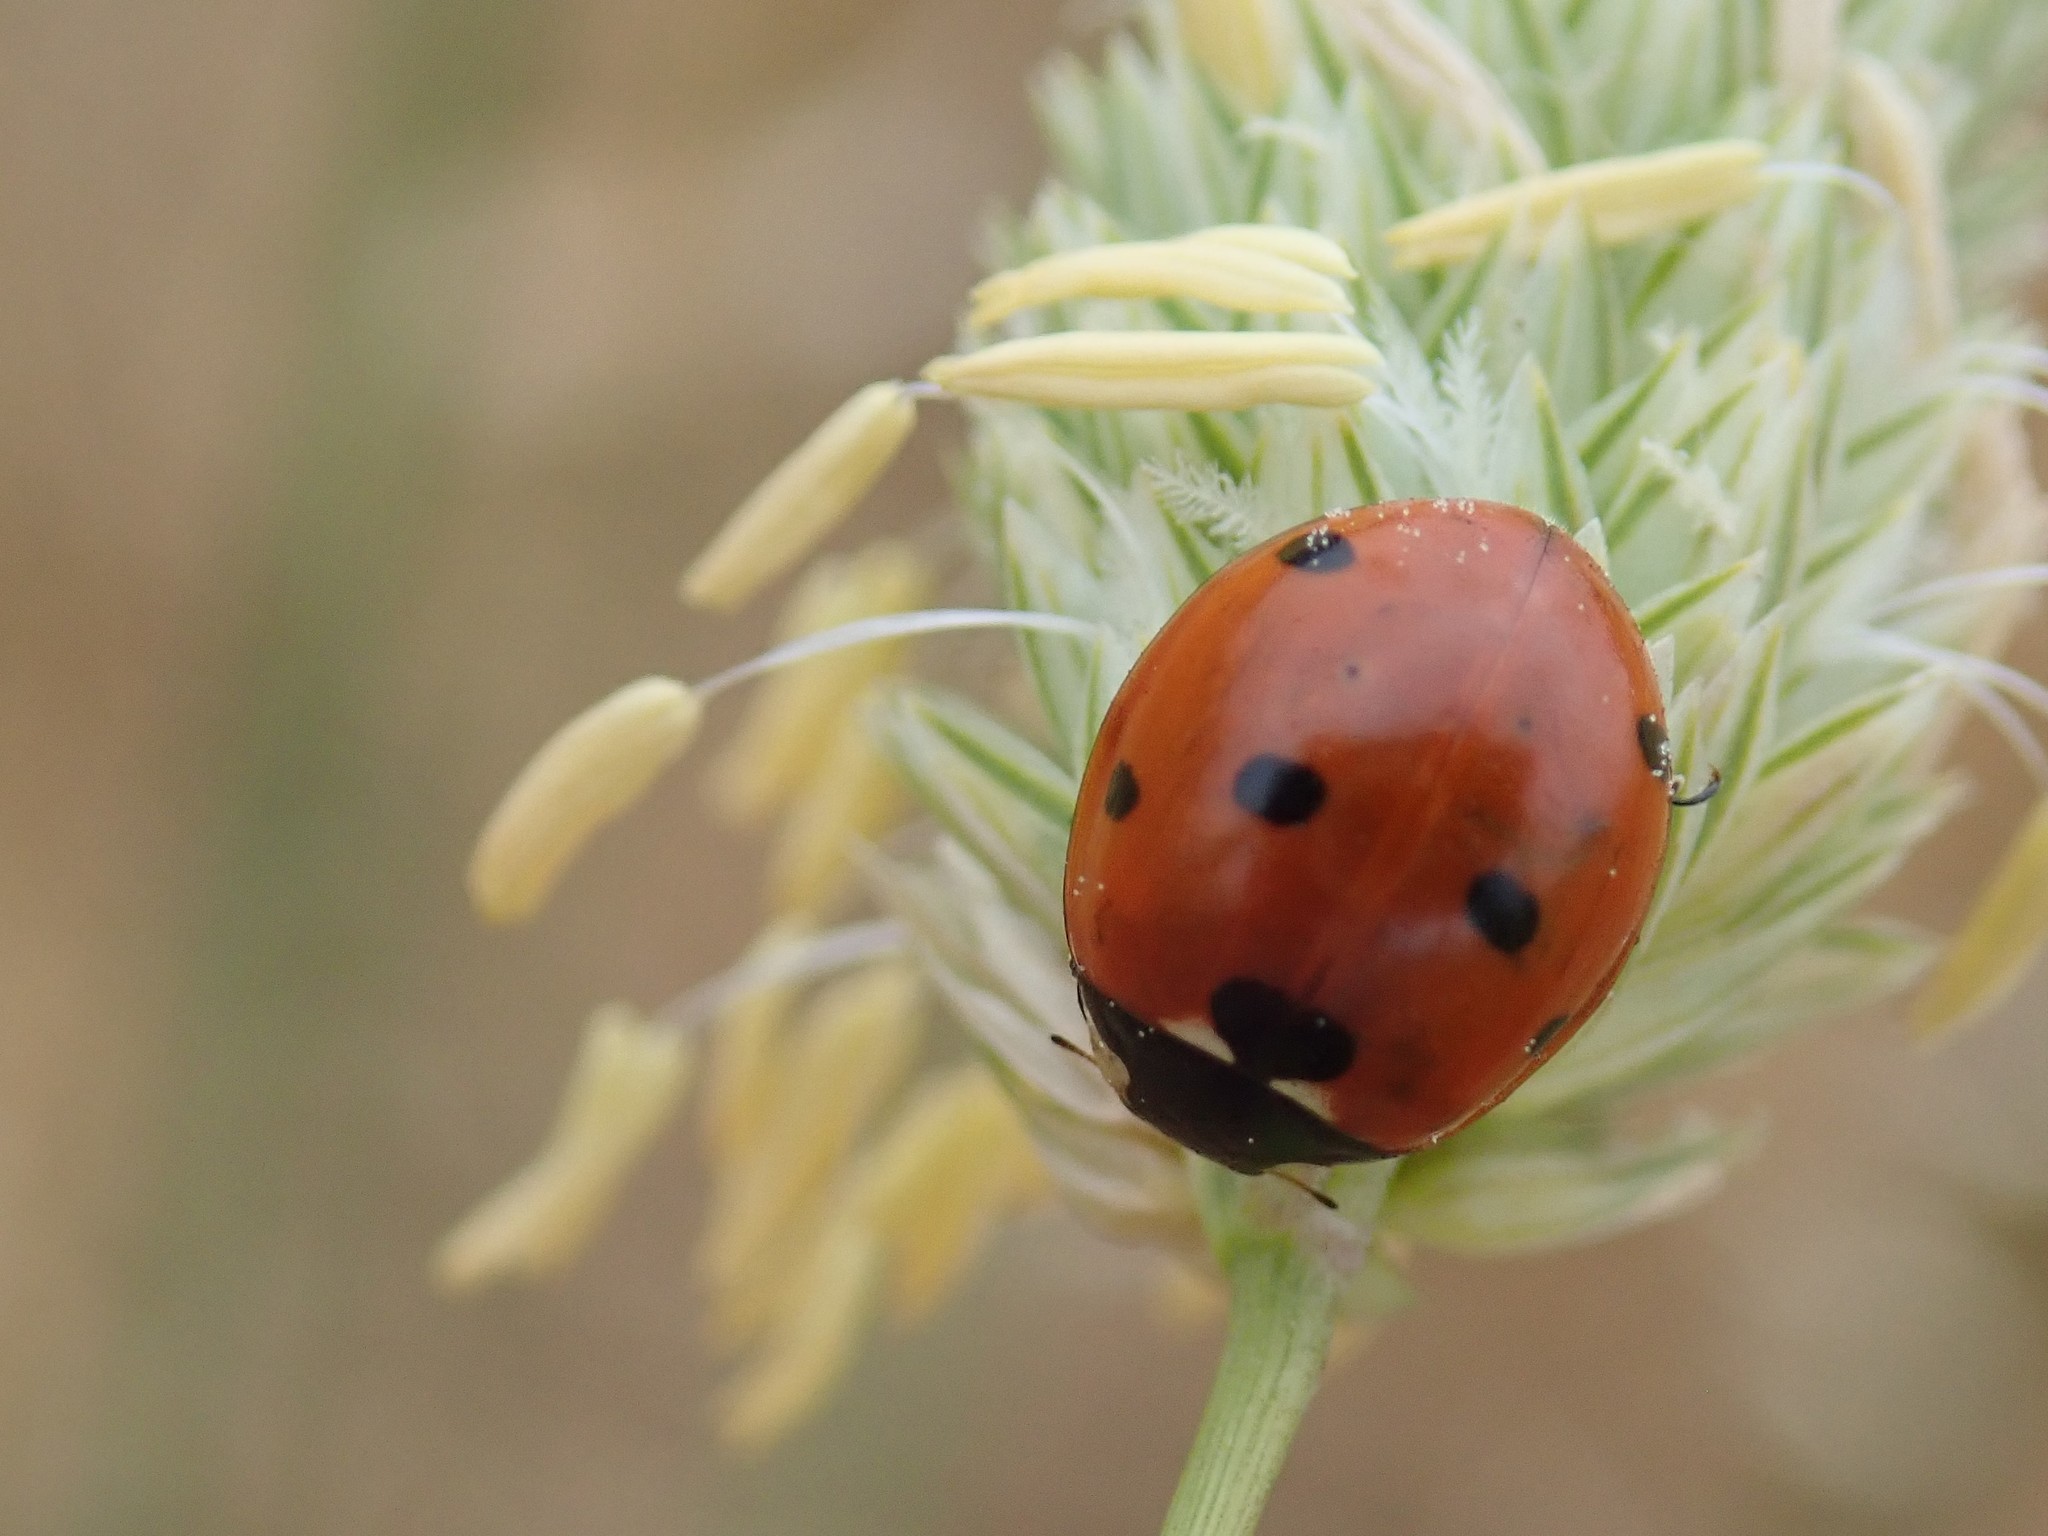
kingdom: Animalia
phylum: Arthropoda
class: Insecta
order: Coleoptera
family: Coccinellidae
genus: Coccinella
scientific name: Coccinella septempunctata
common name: Sevenspotted lady beetle
